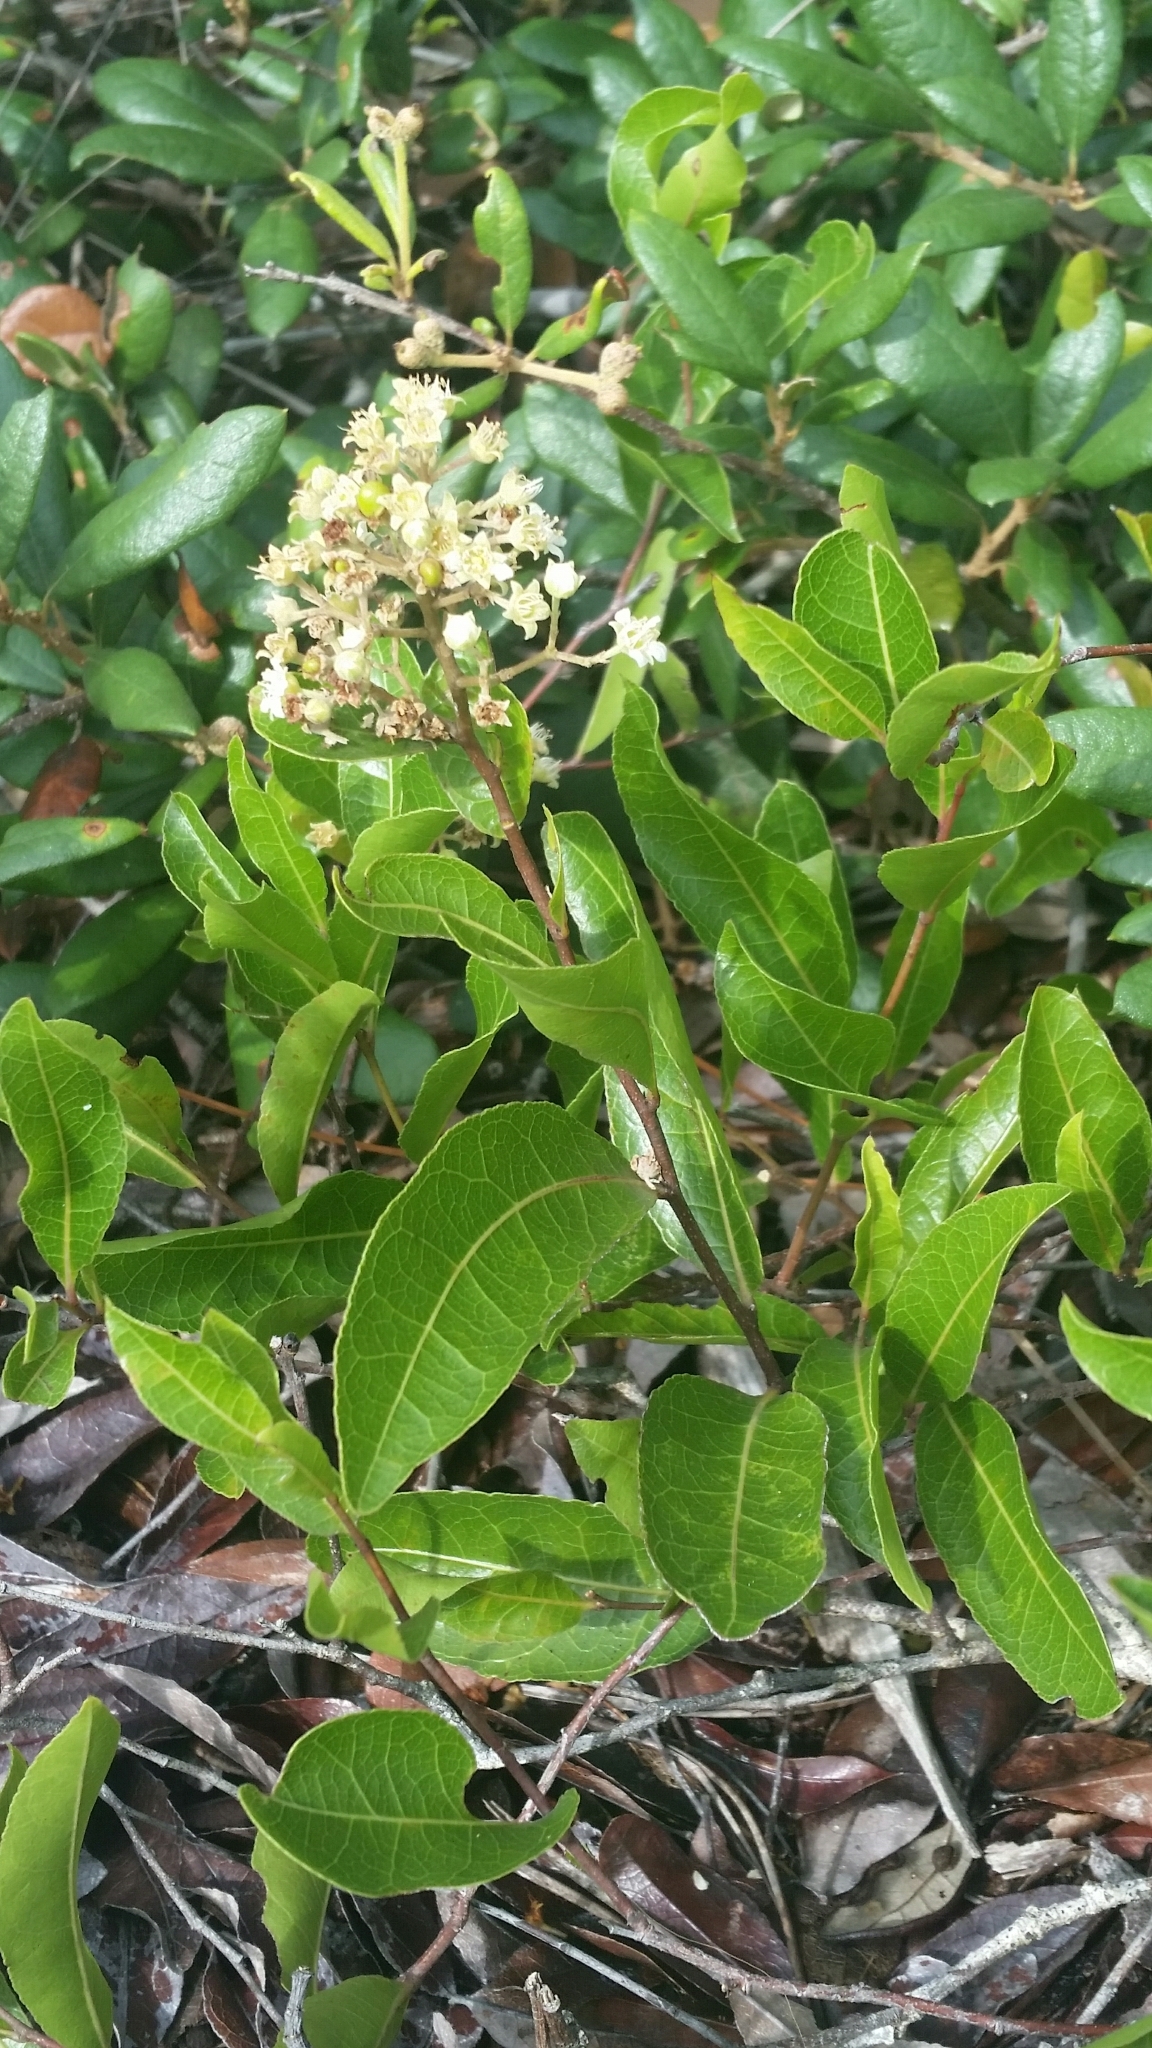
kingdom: Plantae
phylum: Tracheophyta
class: Magnoliopsida
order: Malpighiales
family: Chrysobalanaceae
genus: Geobalanus
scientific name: Geobalanus oblongifolius
